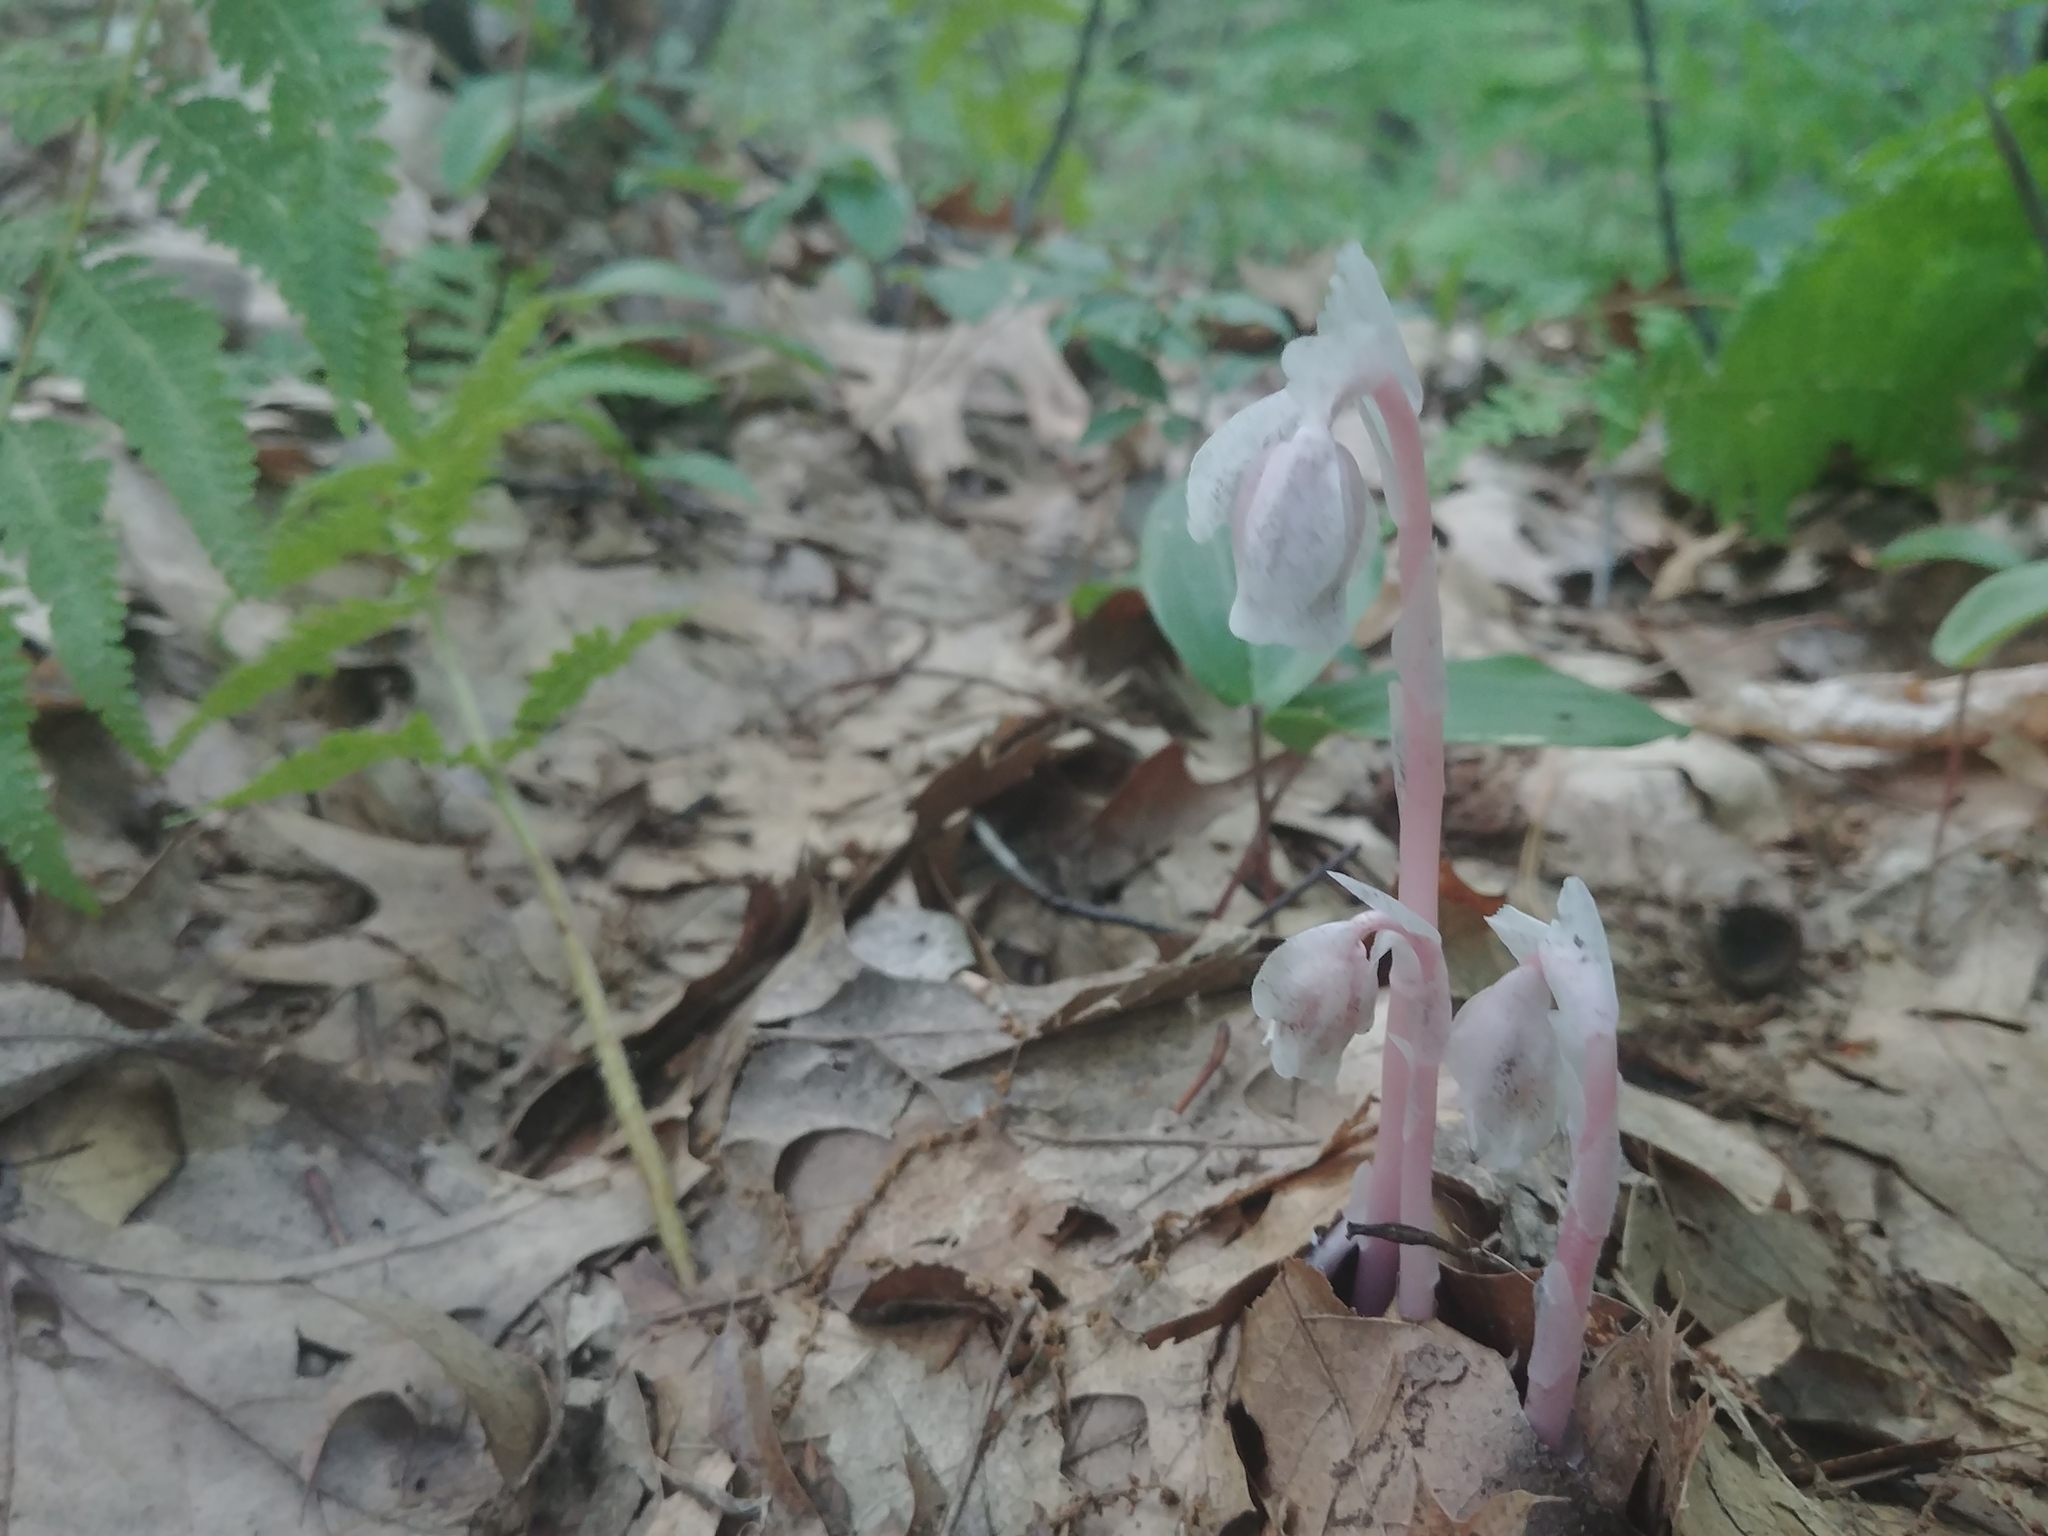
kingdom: Plantae
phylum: Tracheophyta
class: Magnoliopsida
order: Ericales
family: Ericaceae
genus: Monotropa
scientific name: Monotropa uniflora
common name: Convulsion root
